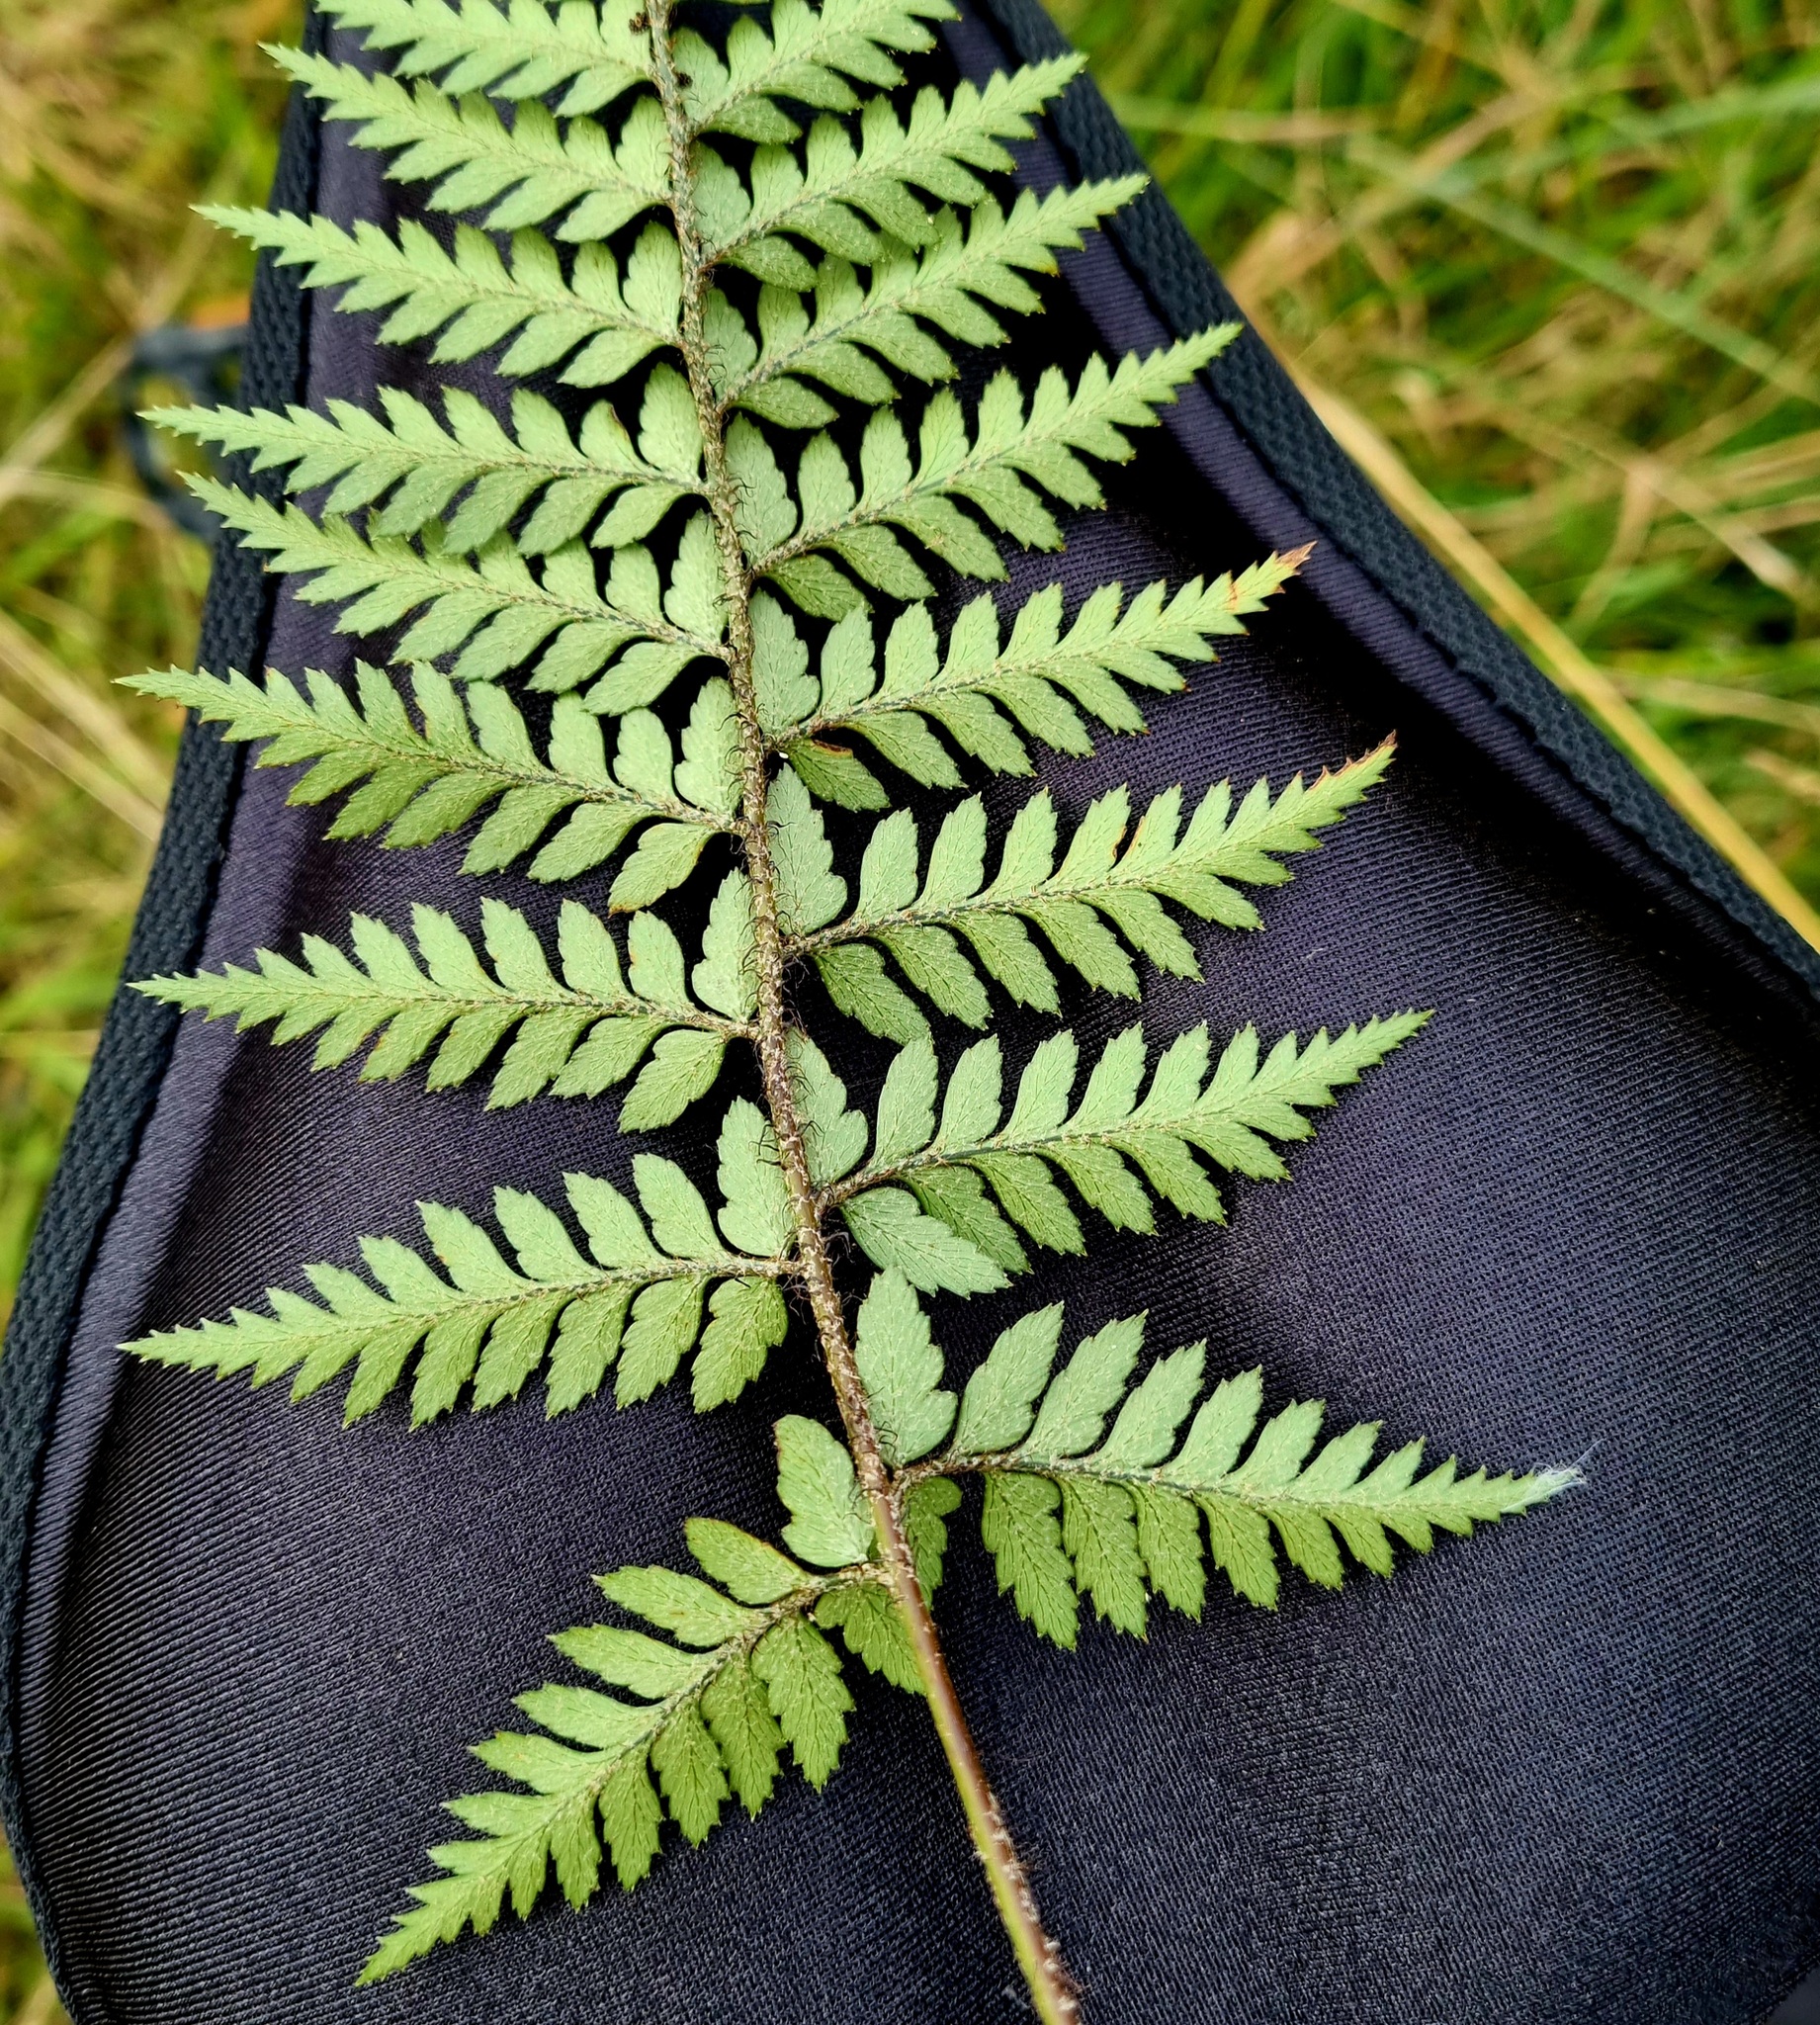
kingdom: Plantae
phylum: Tracheophyta
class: Polypodiopsida
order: Polypodiales
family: Dryopteridaceae
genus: Polystichum
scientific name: Polystichum neozelandicum
